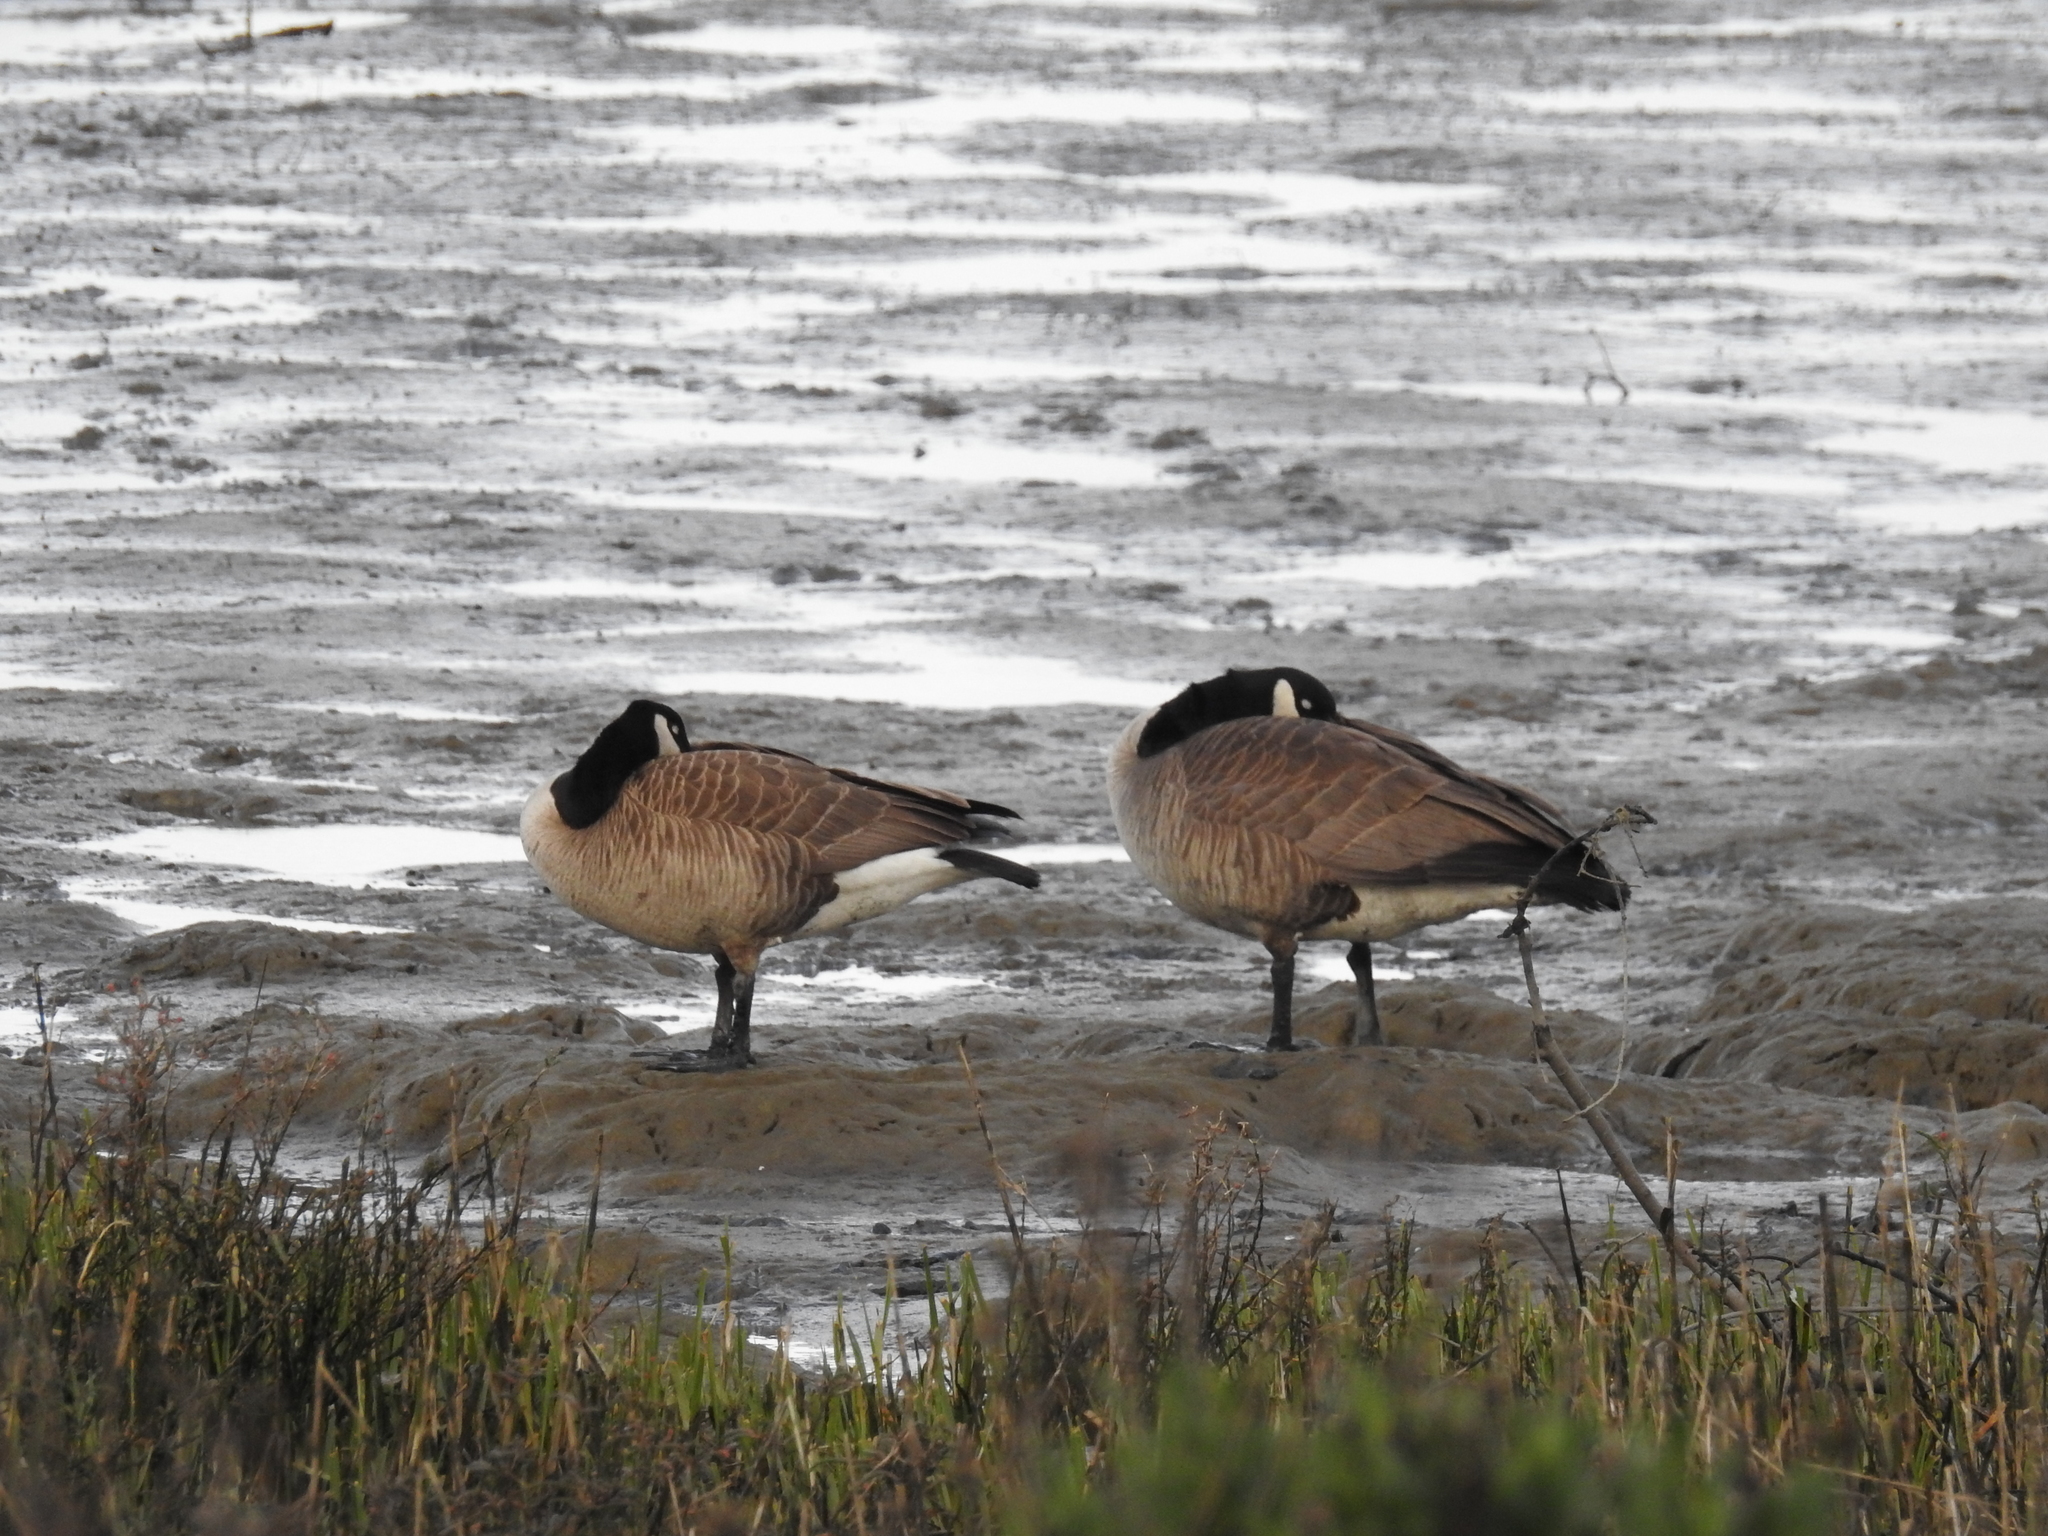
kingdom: Animalia
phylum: Chordata
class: Aves
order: Anseriformes
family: Anatidae
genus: Branta
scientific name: Branta canadensis
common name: Canada goose
